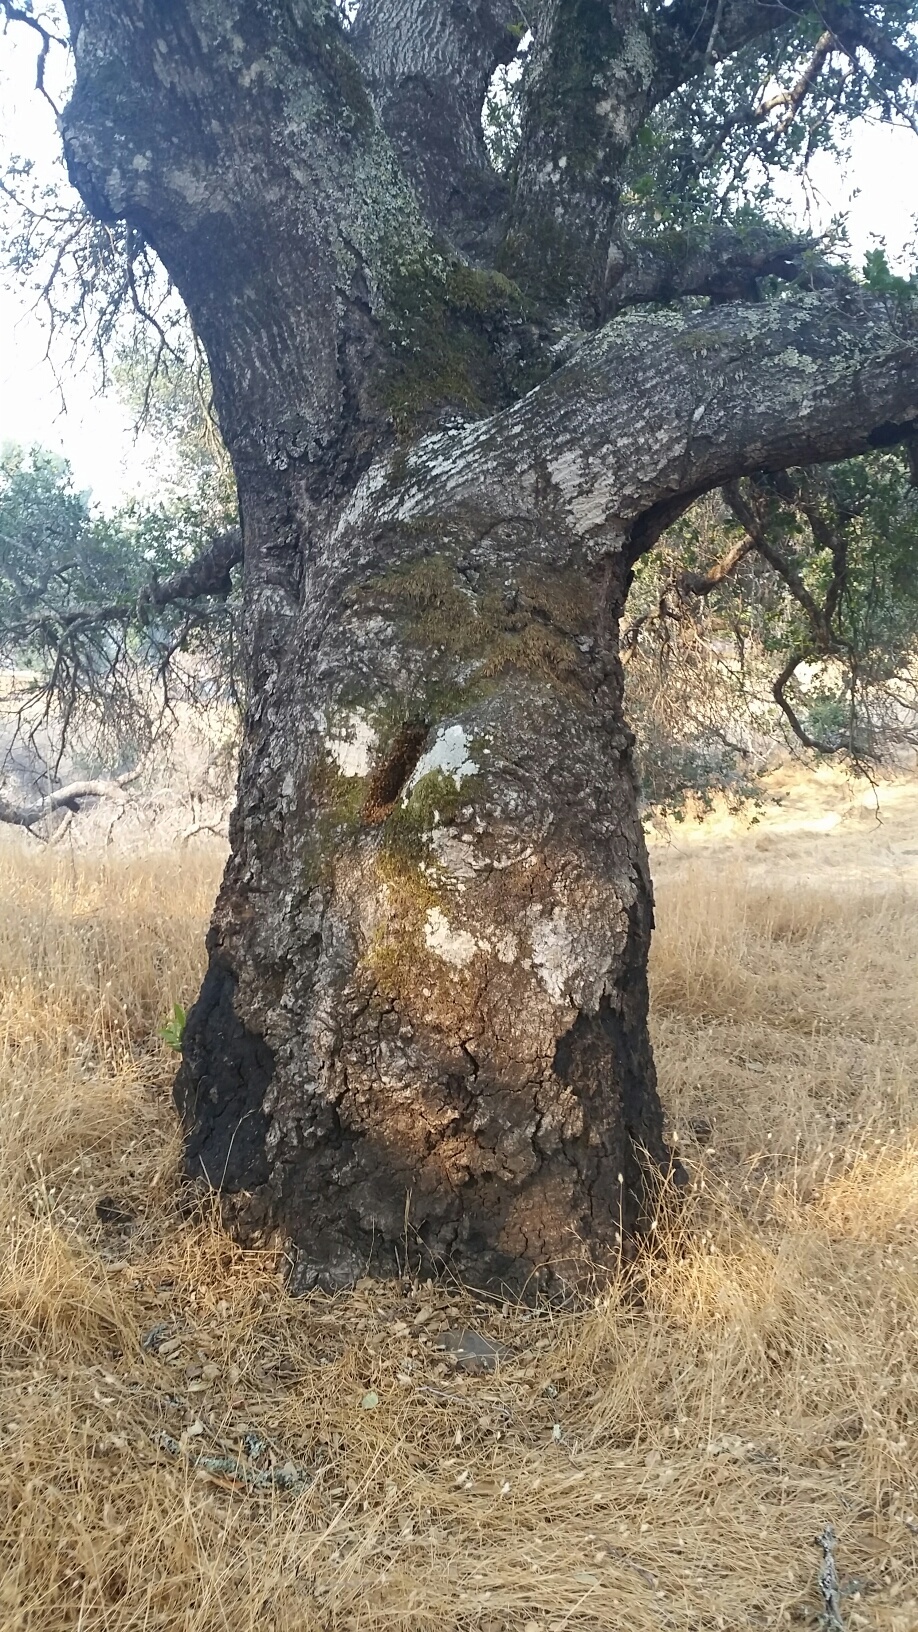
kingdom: Animalia
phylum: Arthropoda
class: Insecta
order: Hymenoptera
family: Apidae
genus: Apis
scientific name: Apis mellifera
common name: Honey bee
